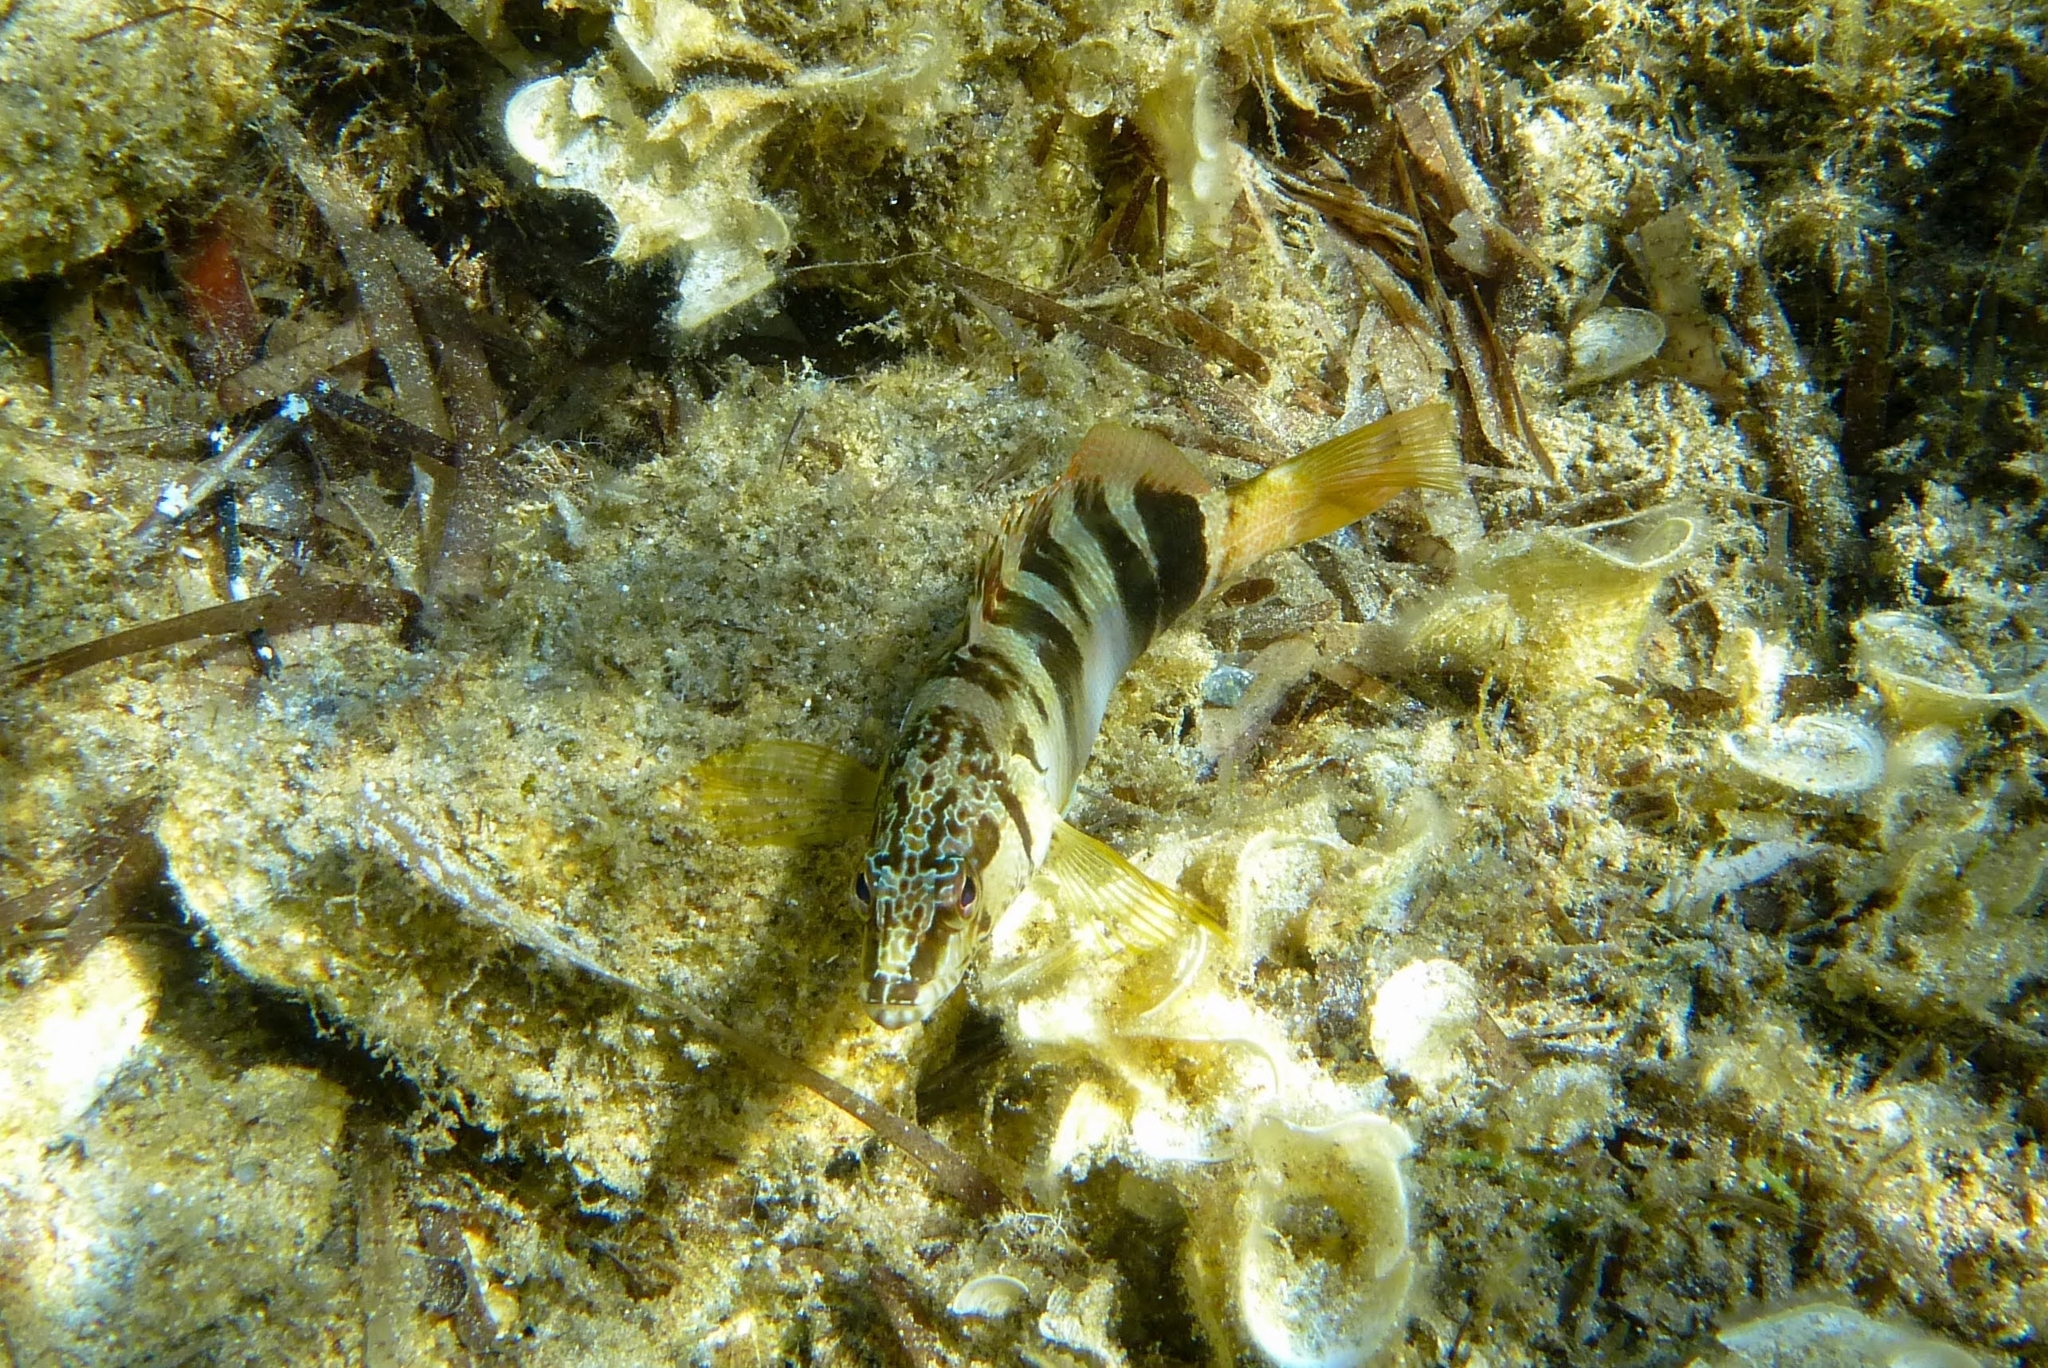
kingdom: Animalia
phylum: Chordata
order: Perciformes
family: Serranidae
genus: Serranus
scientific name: Serranus scriba
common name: Painted comber
